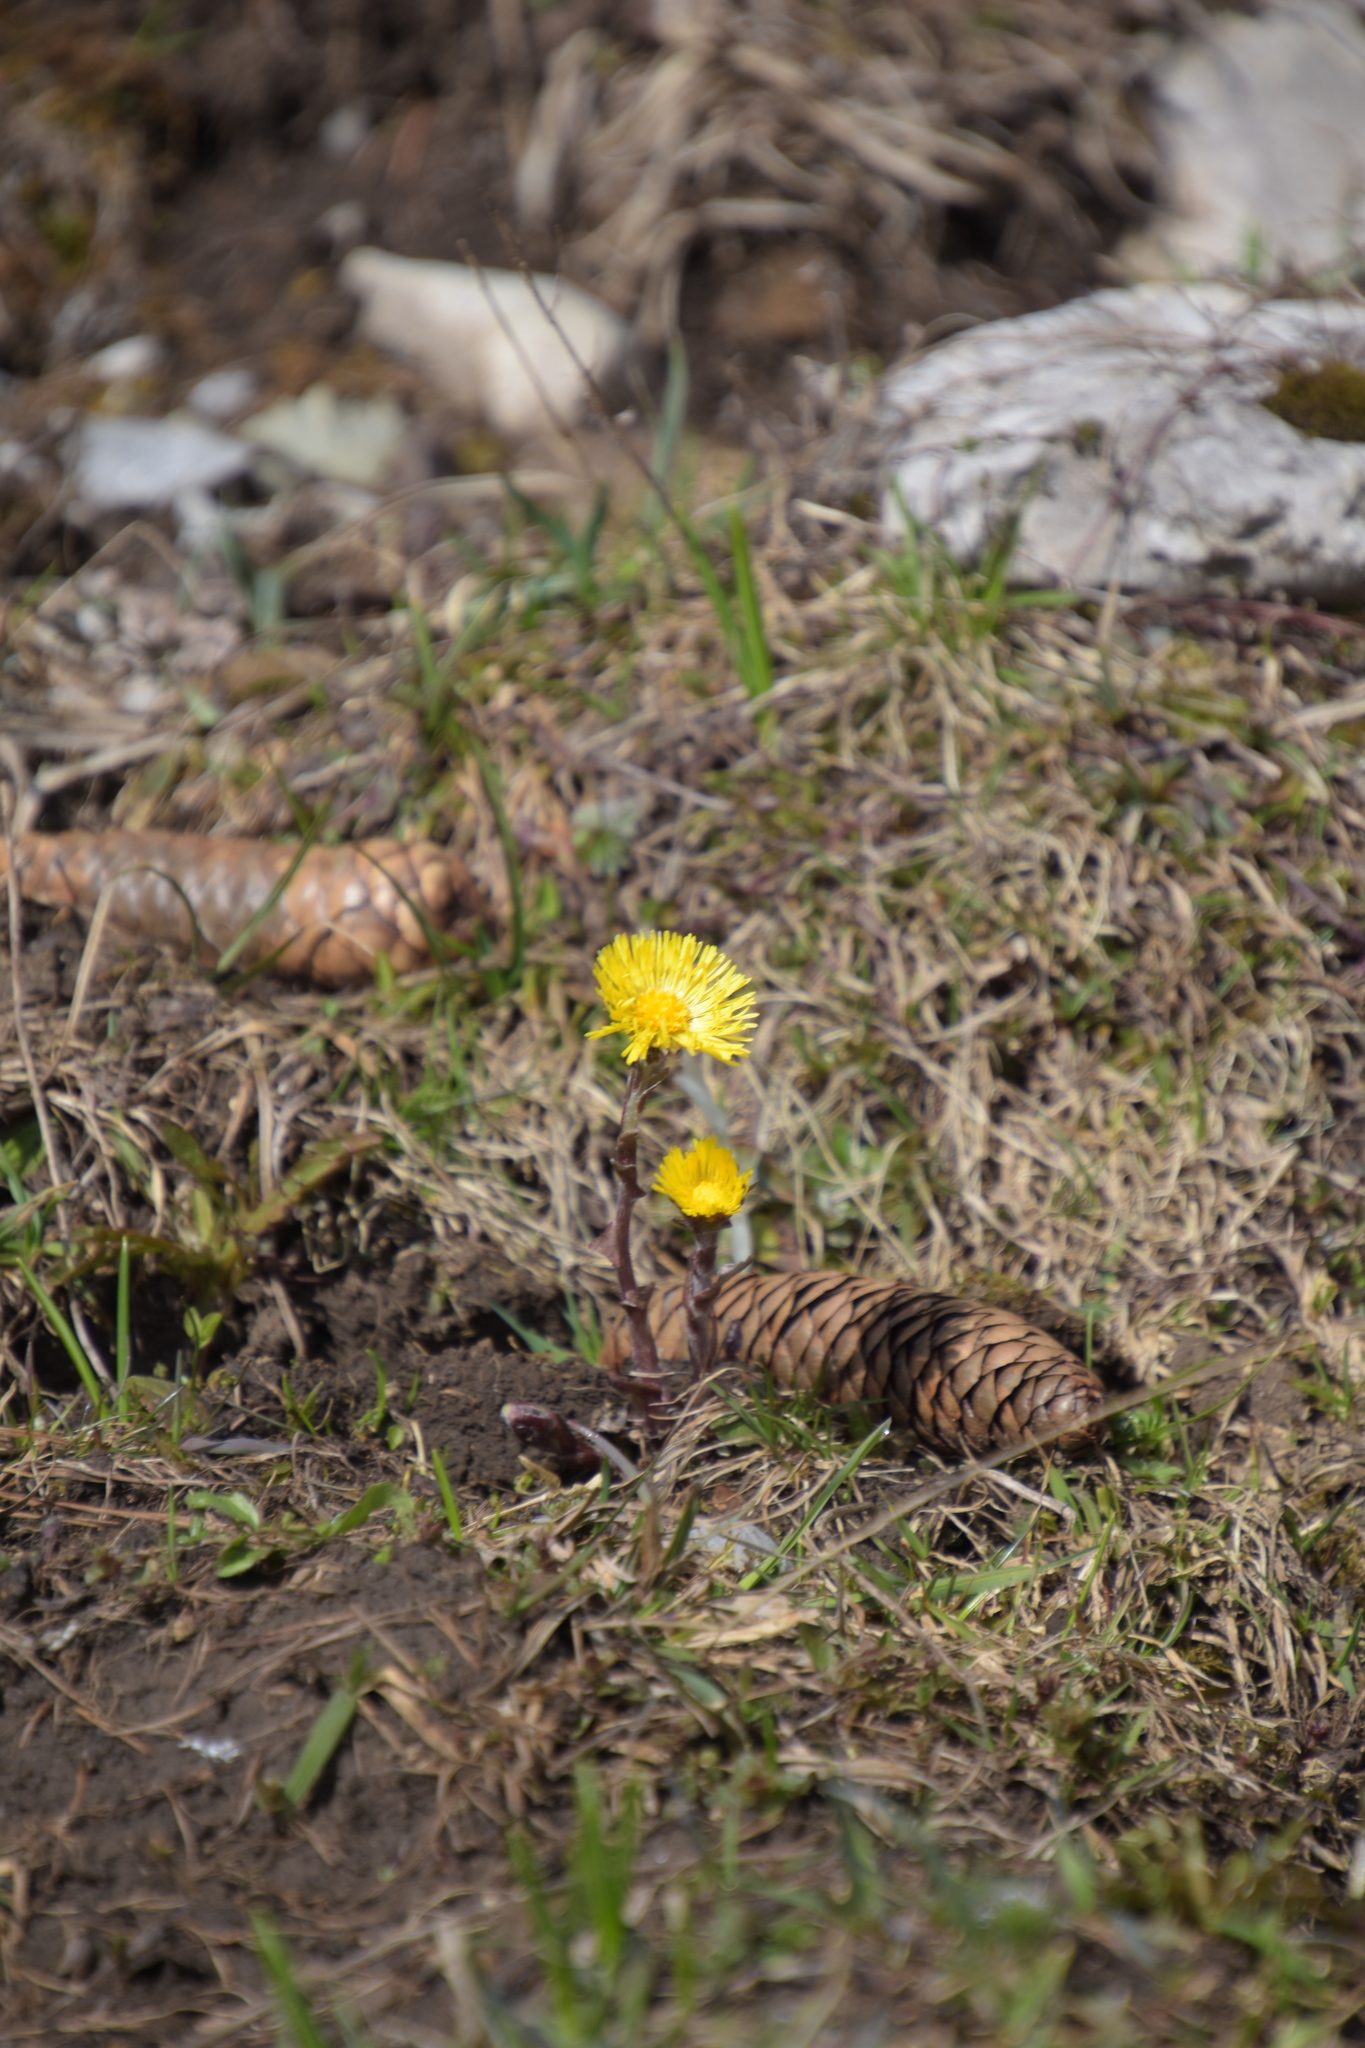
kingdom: Plantae
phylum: Tracheophyta
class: Magnoliopsida
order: Asterales
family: Asteraceae
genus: Tussilago
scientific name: Tussilago farfara
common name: Coltsfoot
